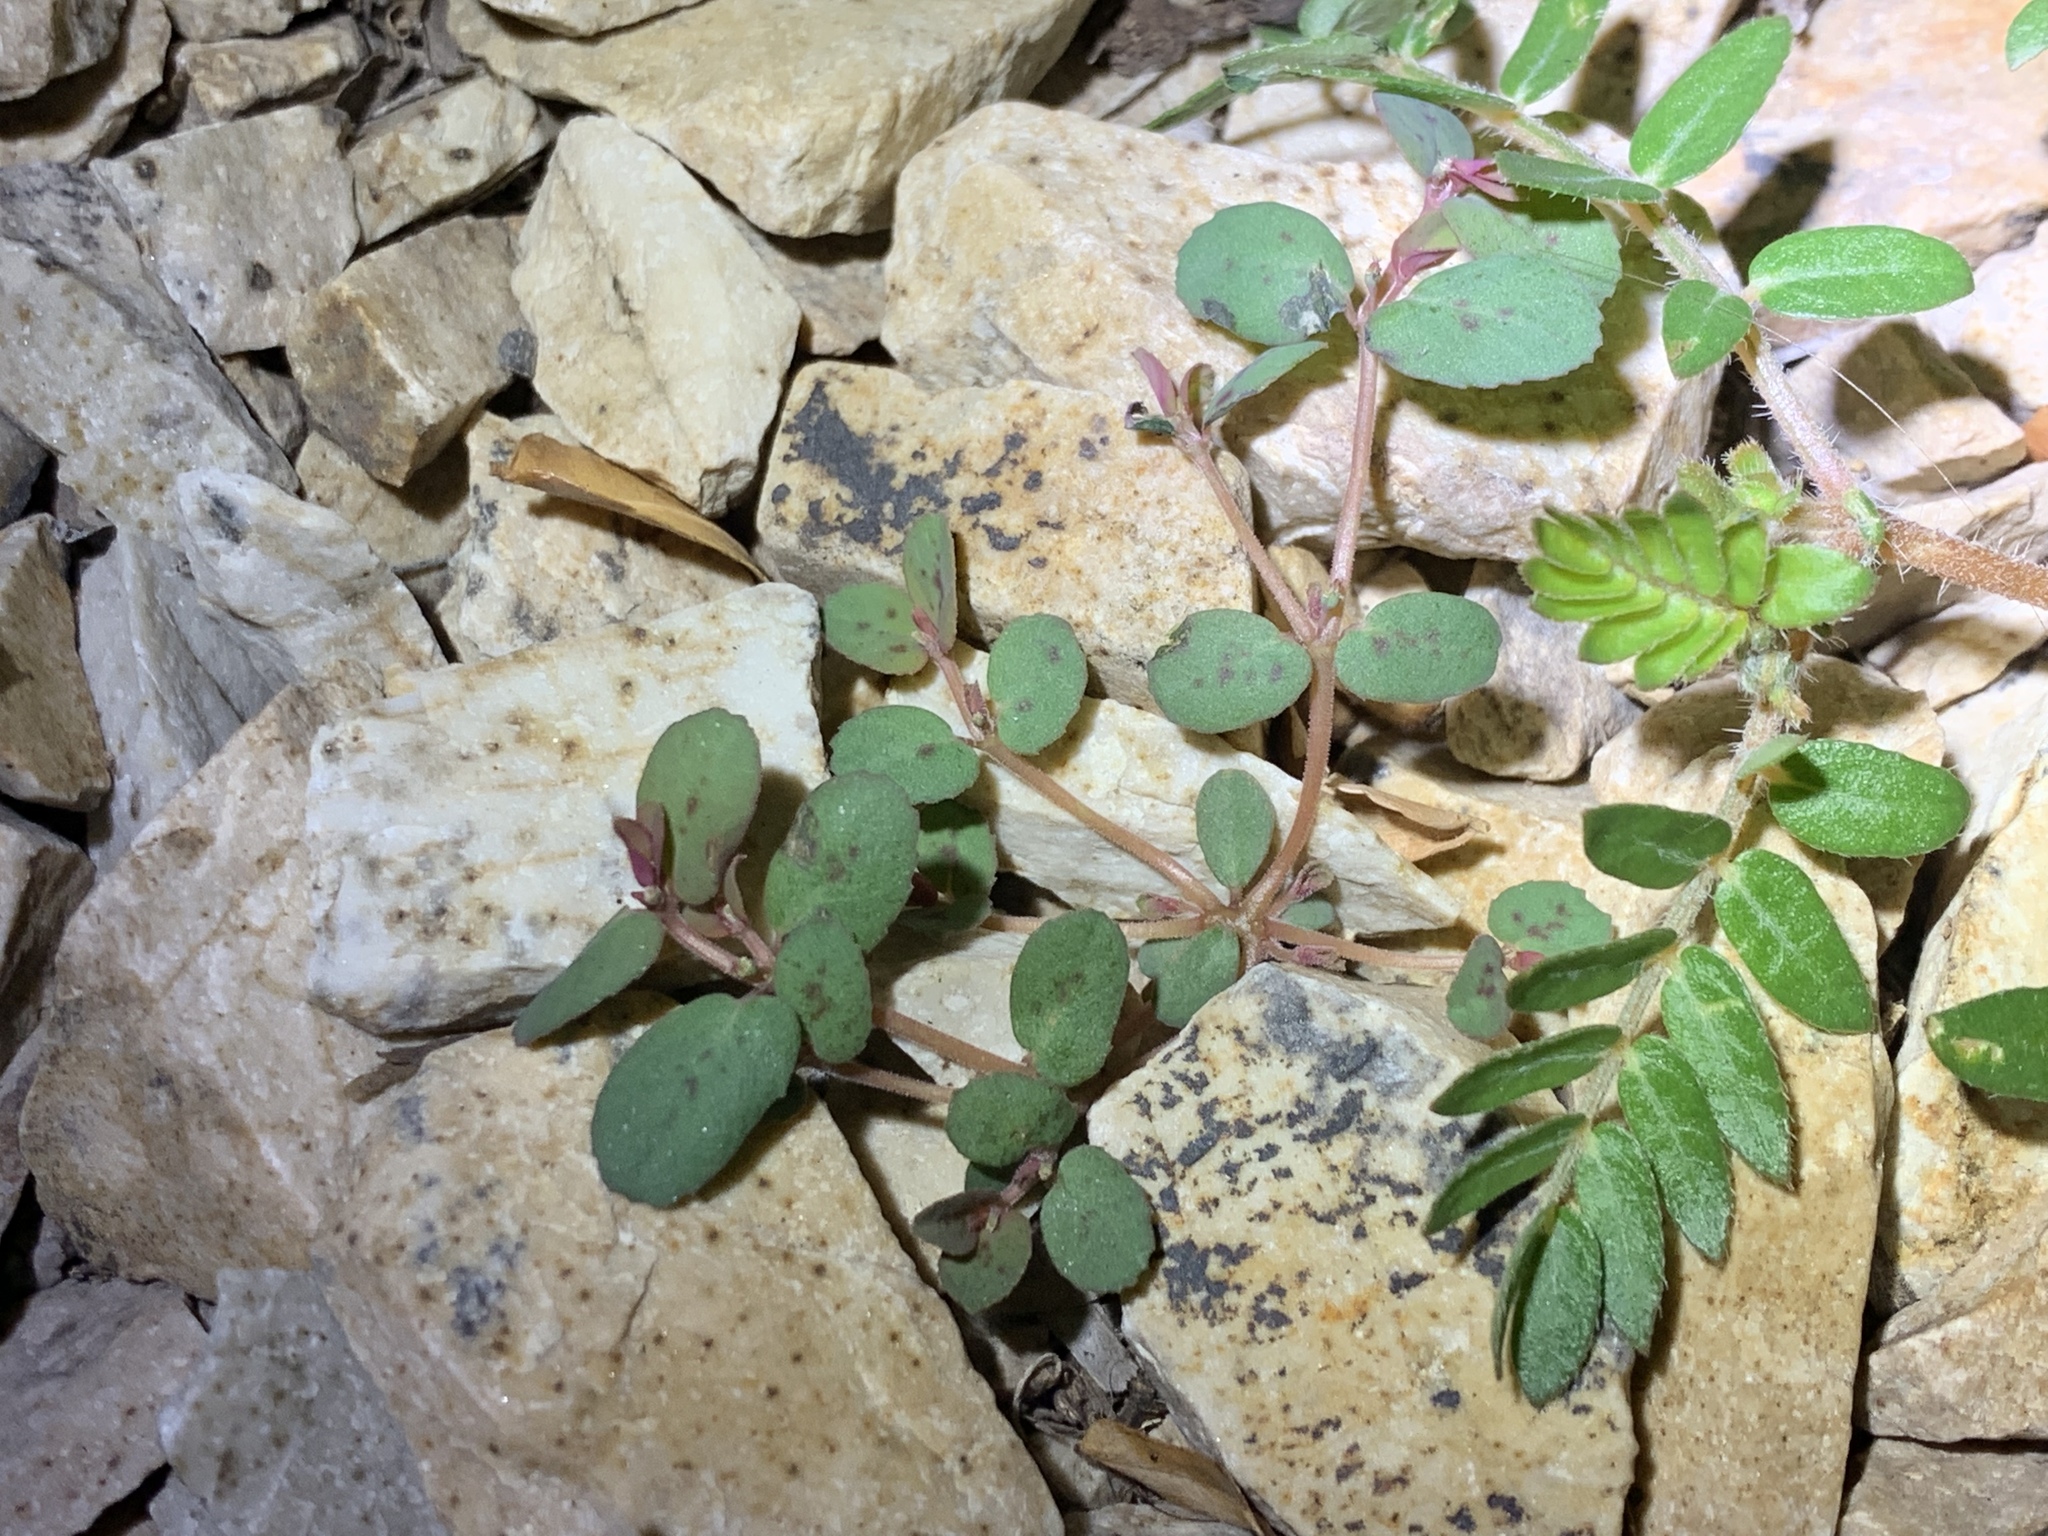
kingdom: Plantae
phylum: Tracheophyta
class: Magnoliopsida
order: Zygophyllales
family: Zygophyllaceae
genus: Tribulus
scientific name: Tribulus terrestris
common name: Puncturevine
